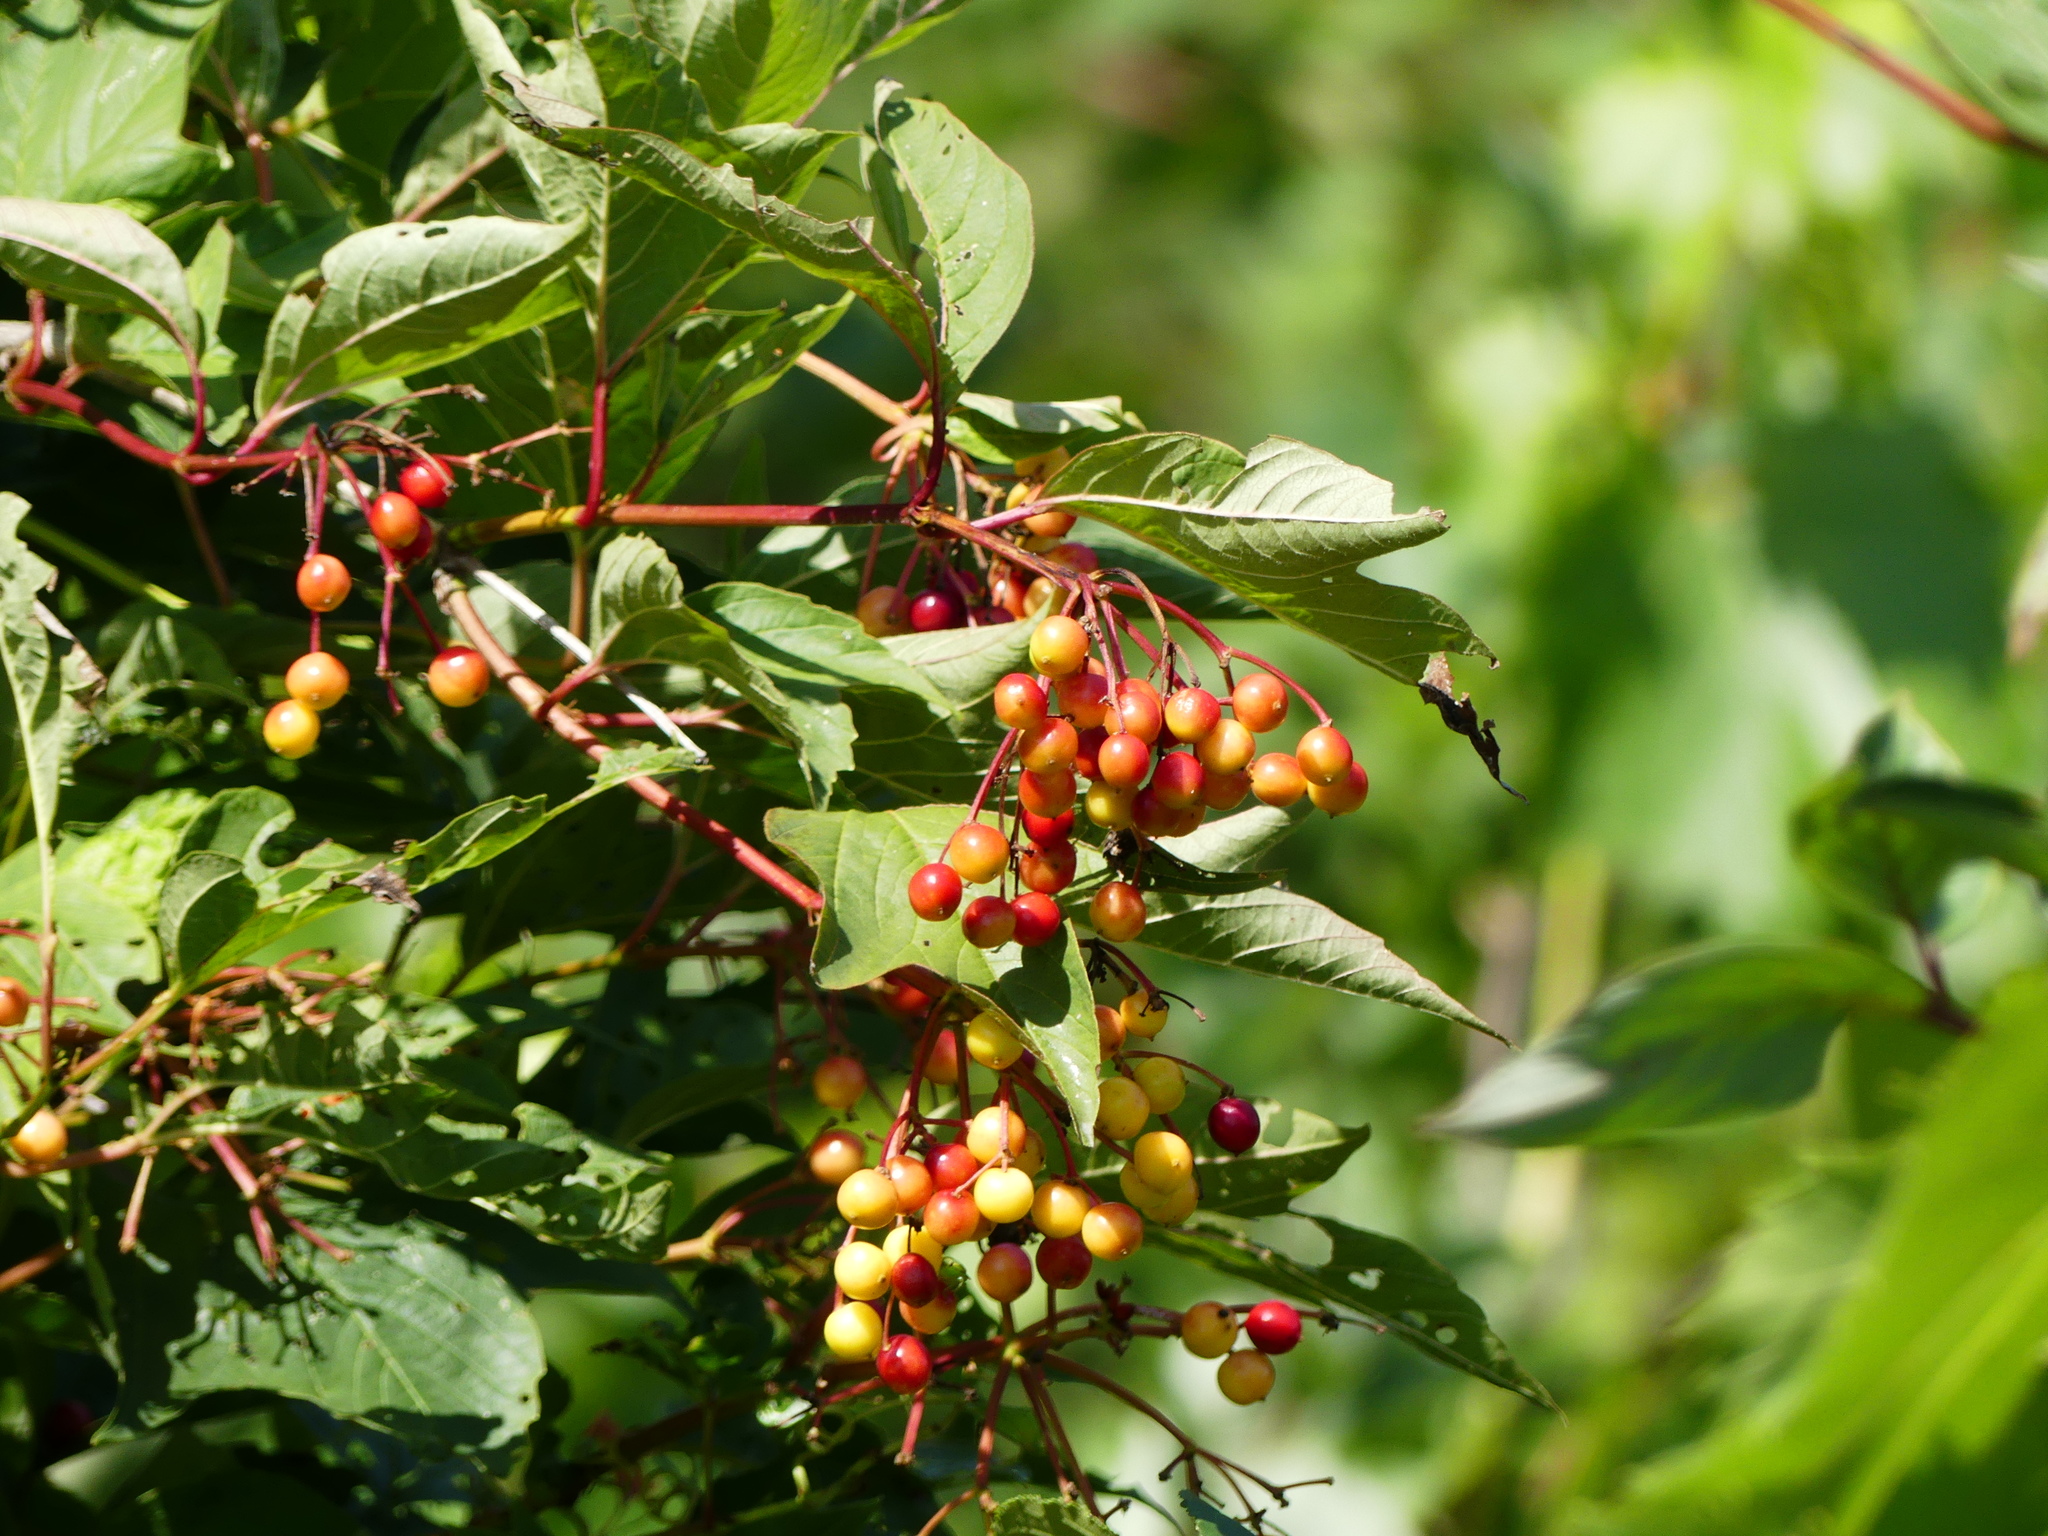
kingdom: Plantae
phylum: Tracheophyta
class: Magnoliopsida
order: Dipsacales
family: Viburnaceae
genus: Viburnum
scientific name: Viburnum opulus
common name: Guelder-rose
